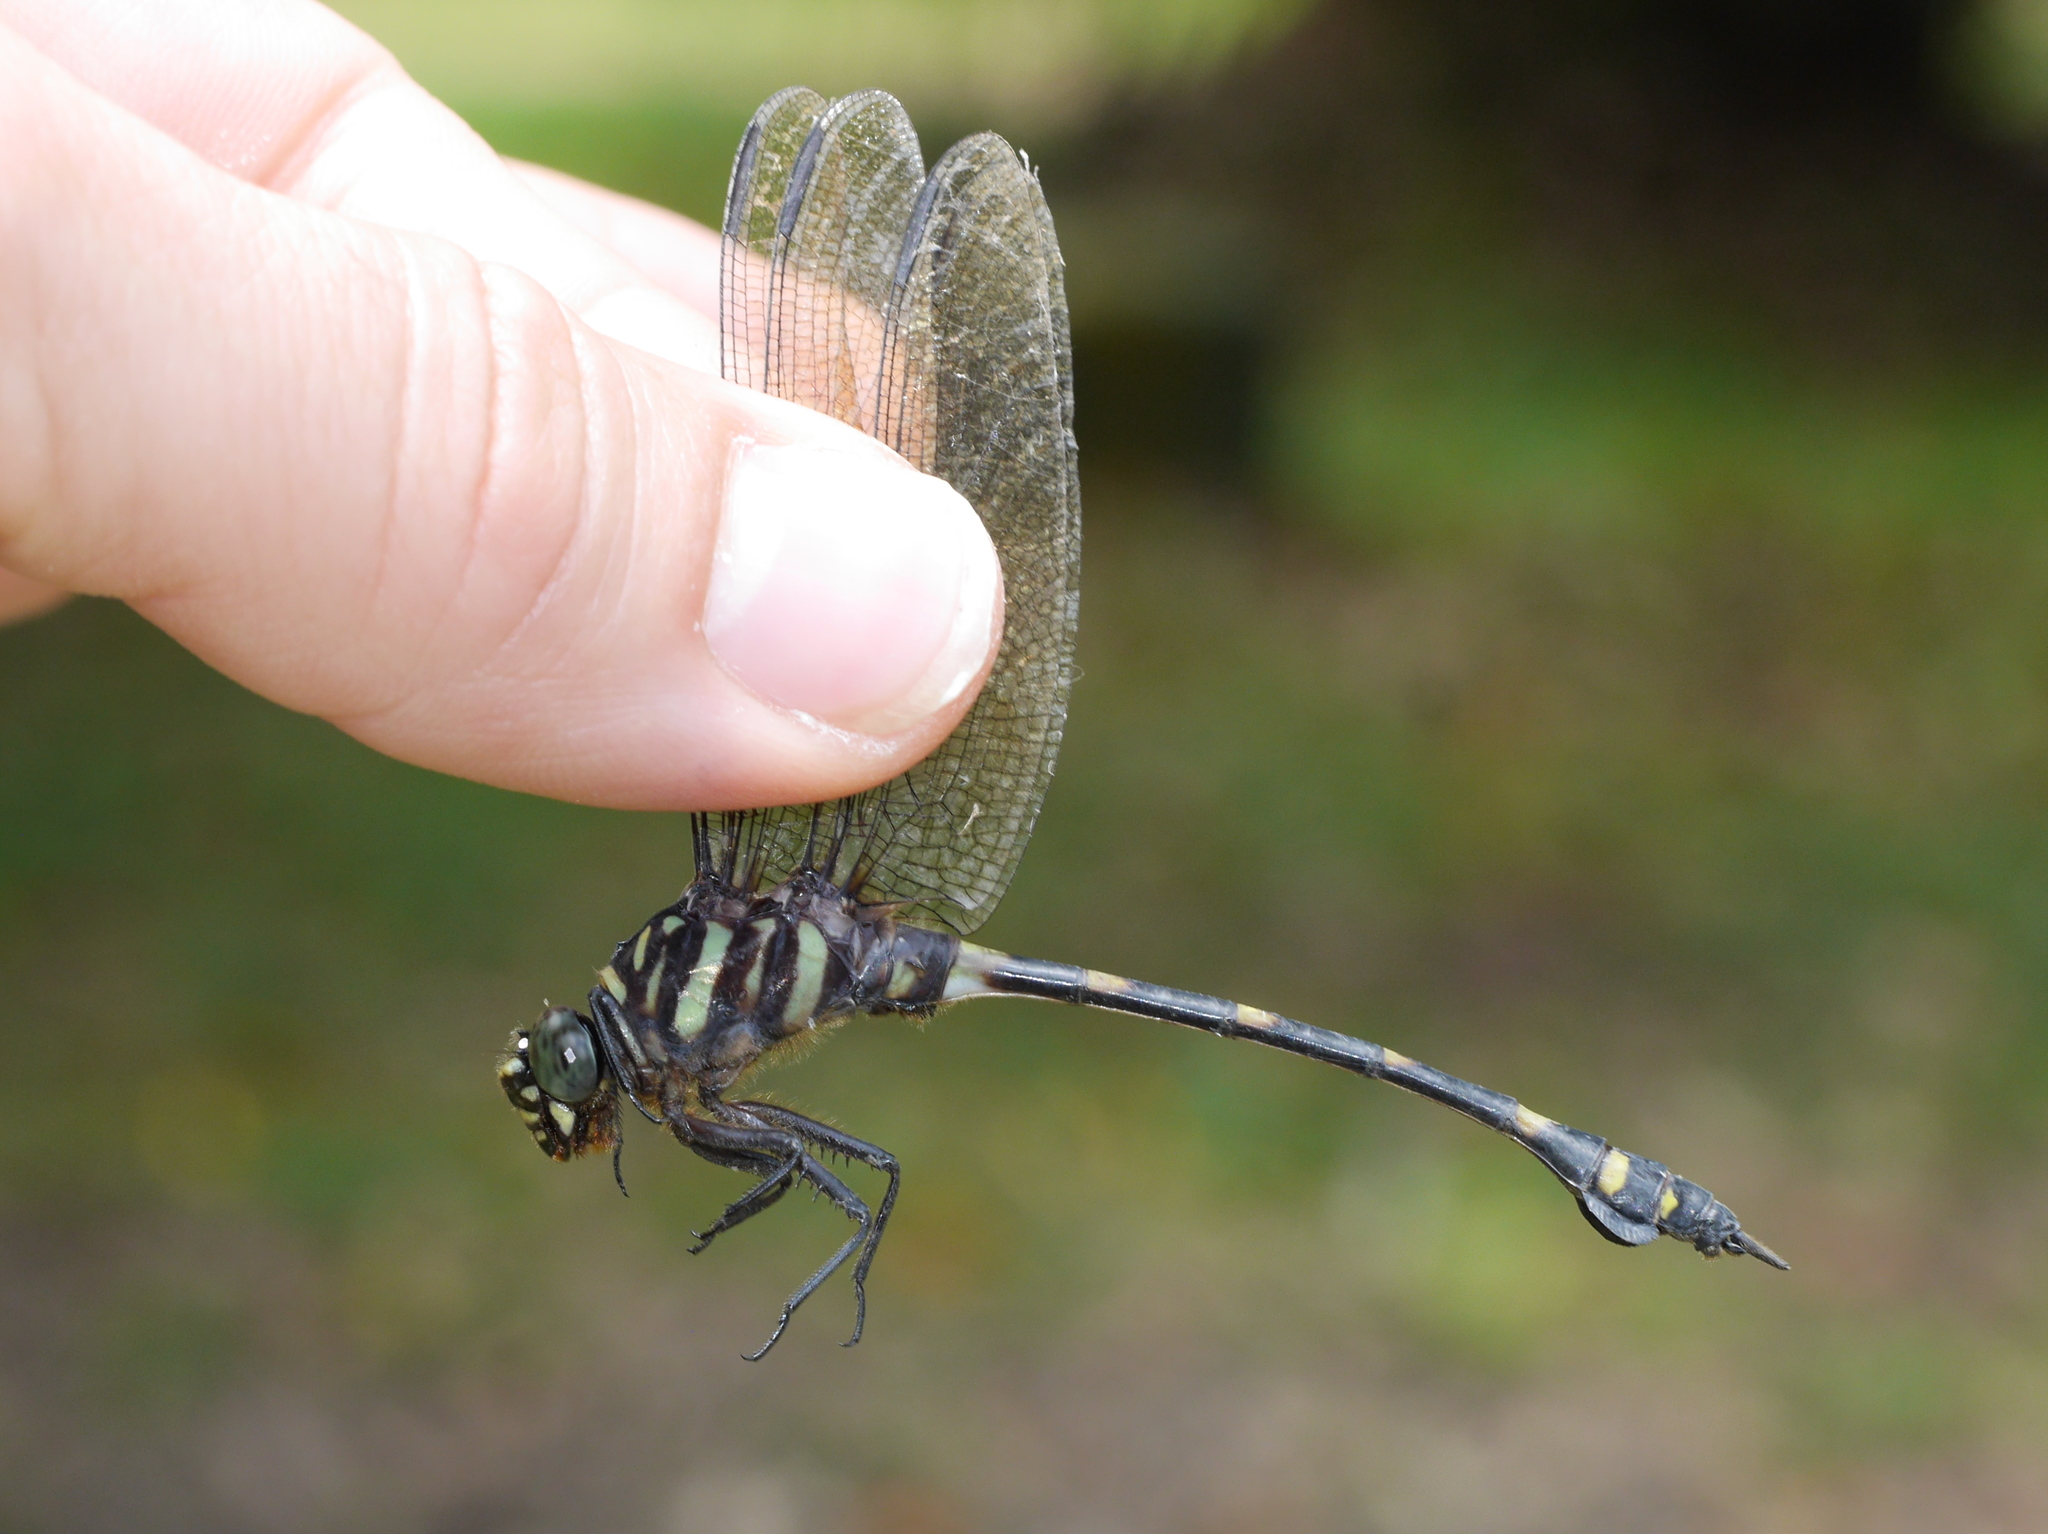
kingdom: Animalia
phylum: Arthropoda
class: Insecta
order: Odonata
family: Gomphidae
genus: Ictinogomphus
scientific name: Ictinogomphus decoratus
